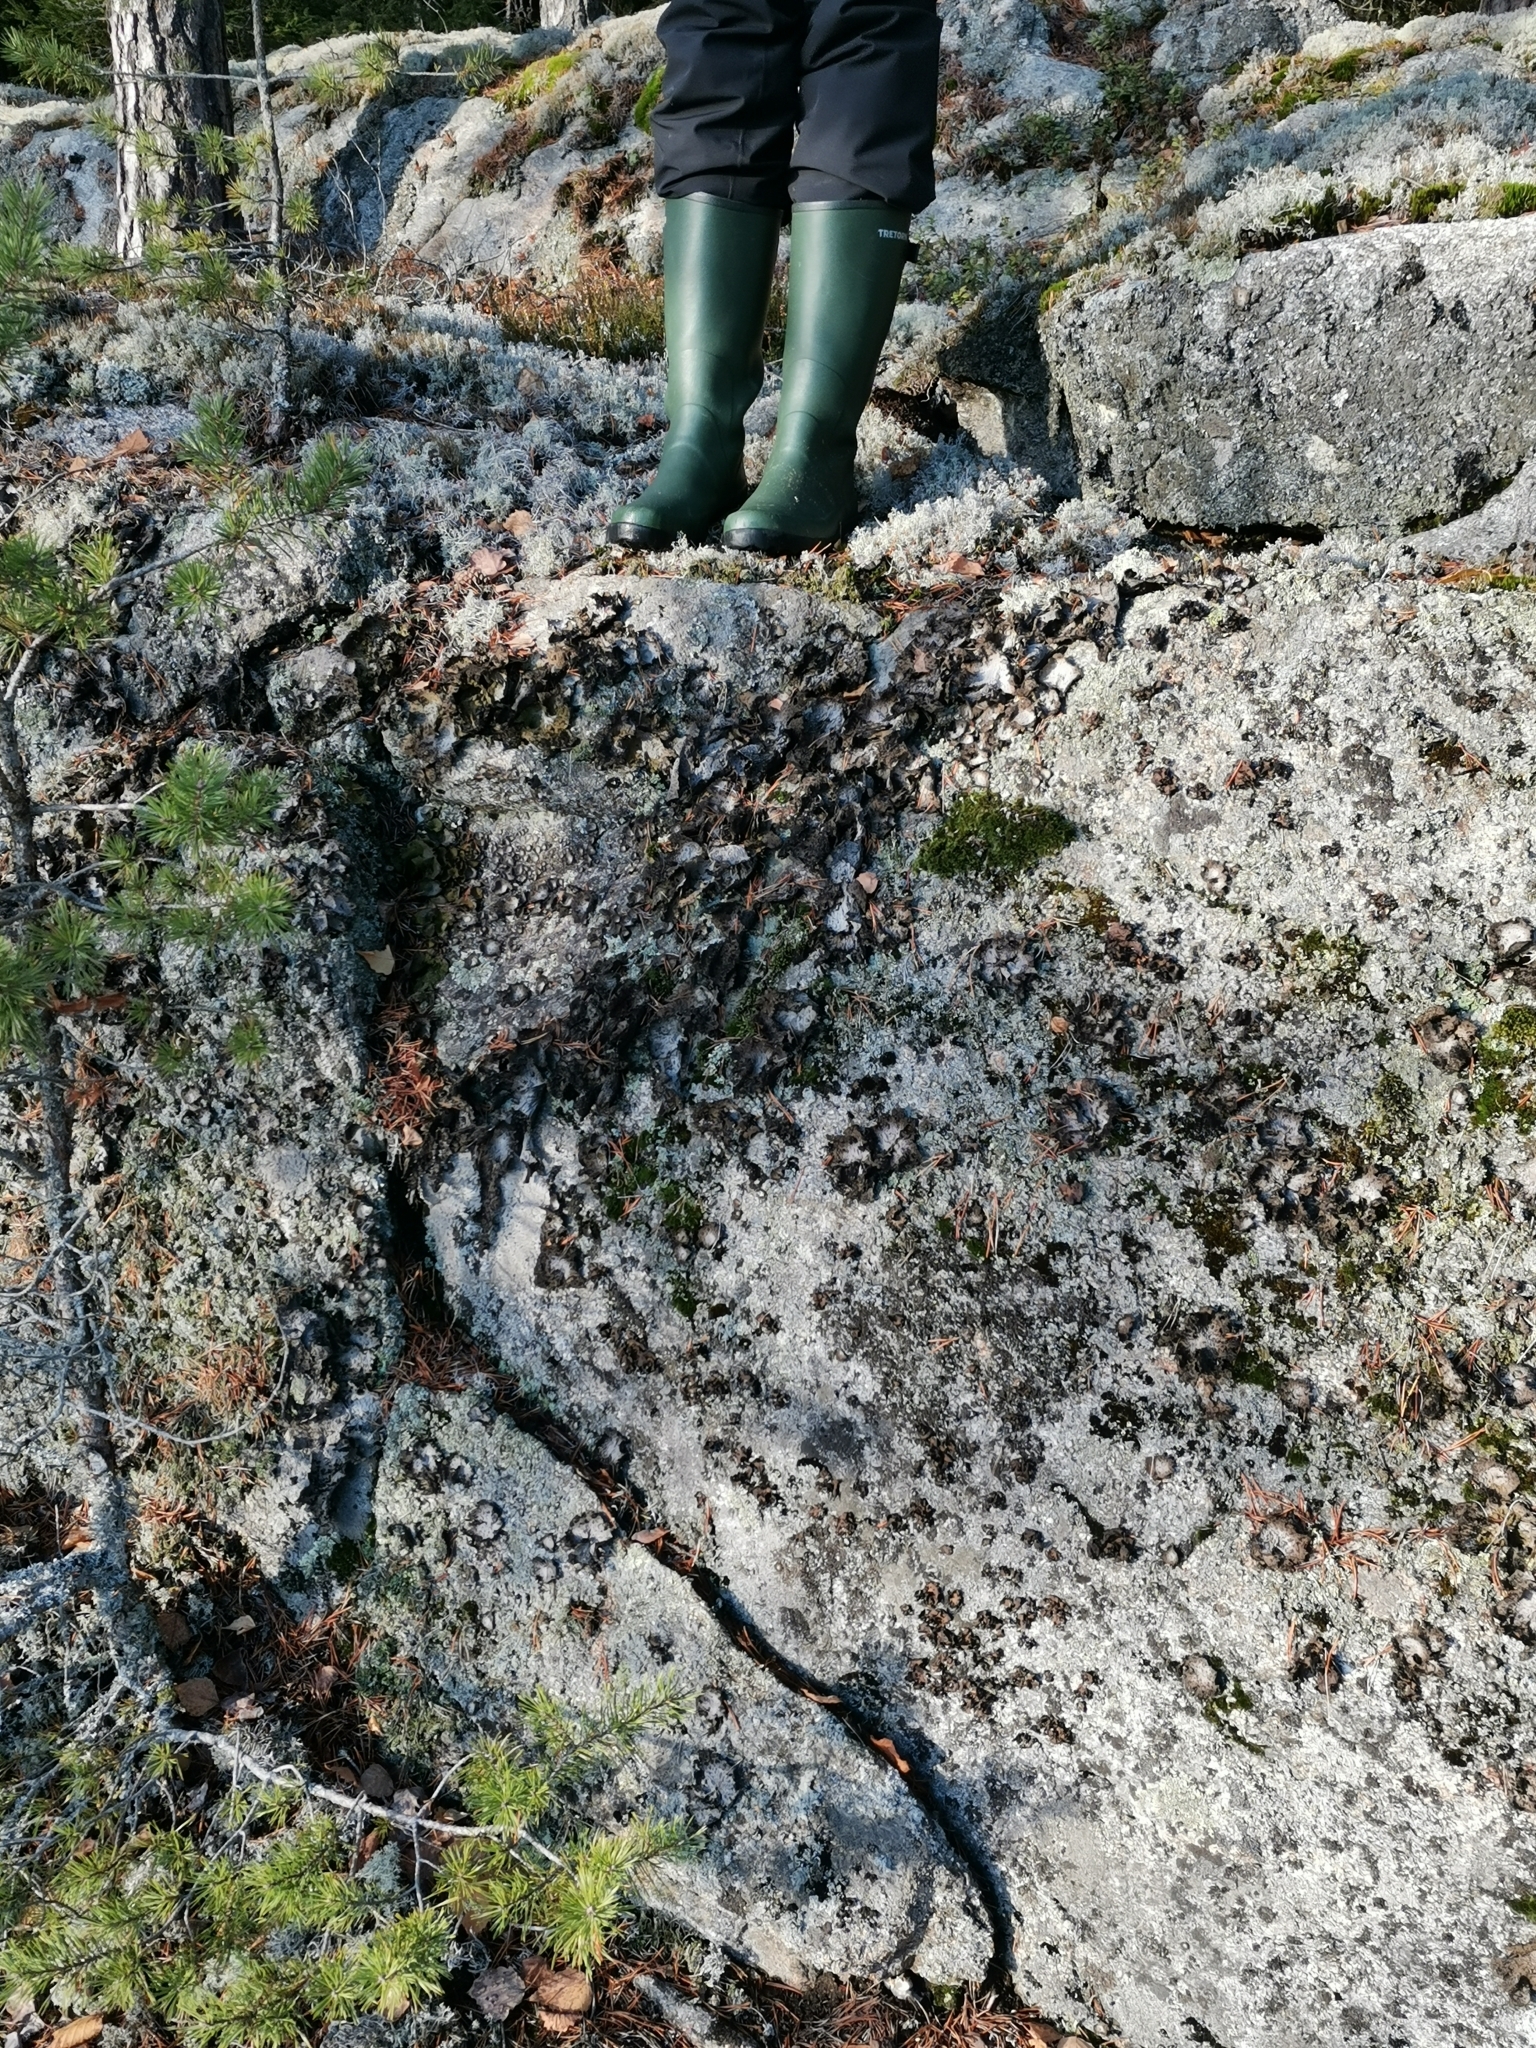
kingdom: Fungi
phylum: Ascomycota
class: Lecanoromycetes
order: Umbilicariales
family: Umbilicariaceae
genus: Lasallia
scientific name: Lasallia pustulata
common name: Blistered toadskin lichen
